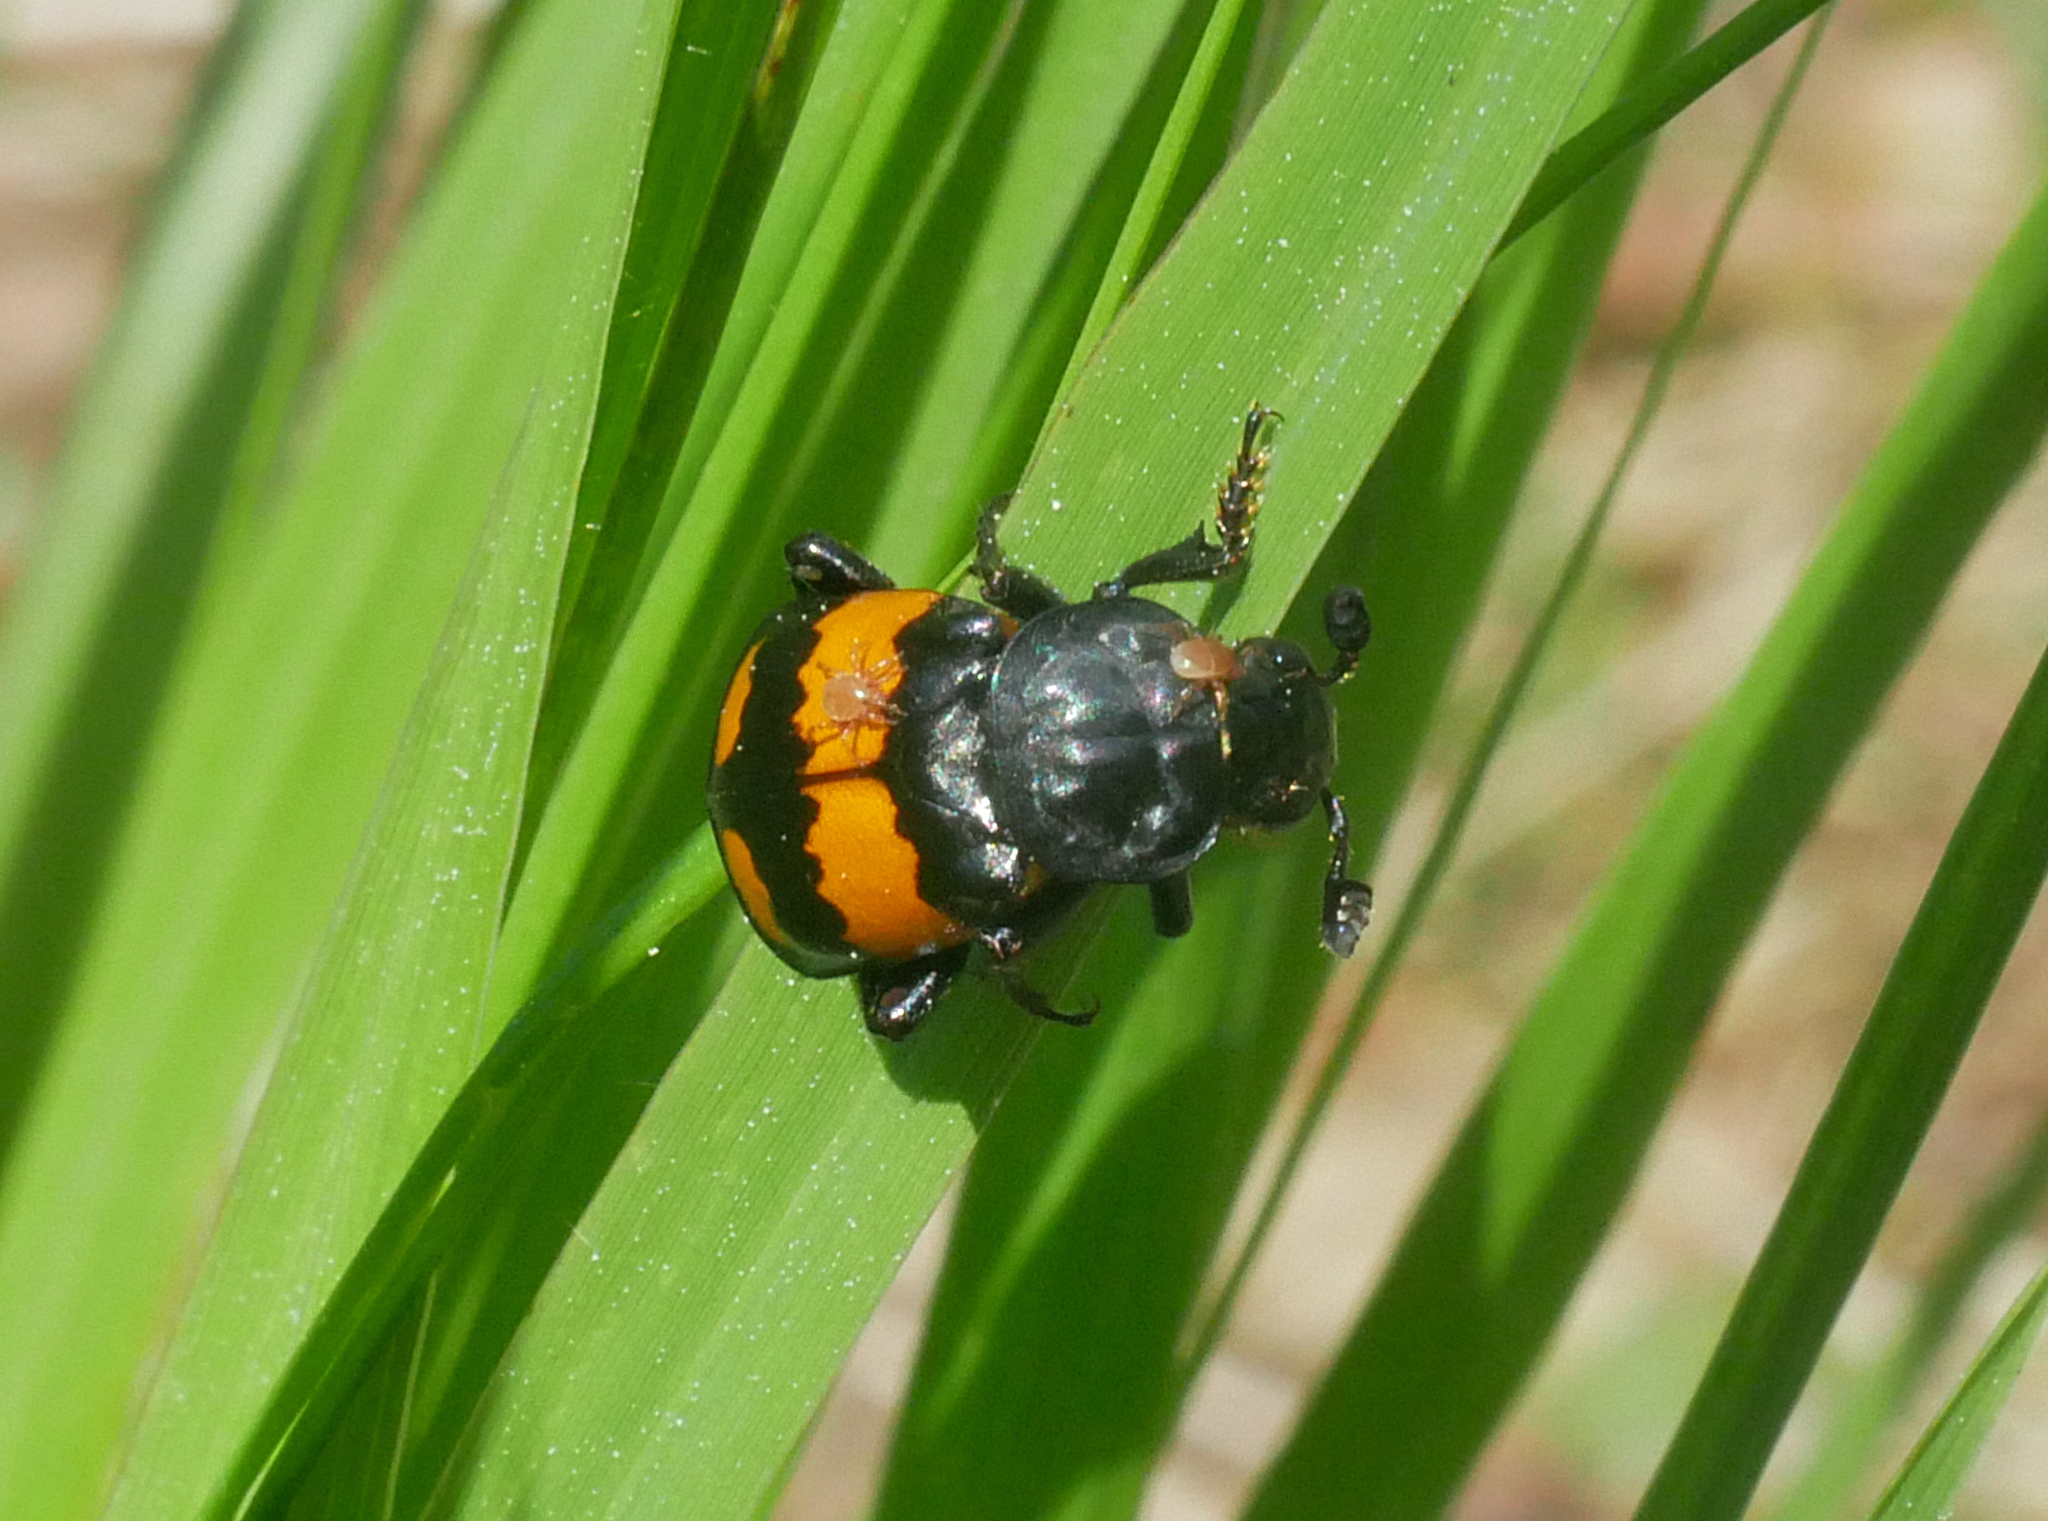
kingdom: Animalia
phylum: Arthropoda
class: Insecta
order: Coleoptera
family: Staphylinidae
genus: Nicrophorus
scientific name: Nicrophorus vespilloides
